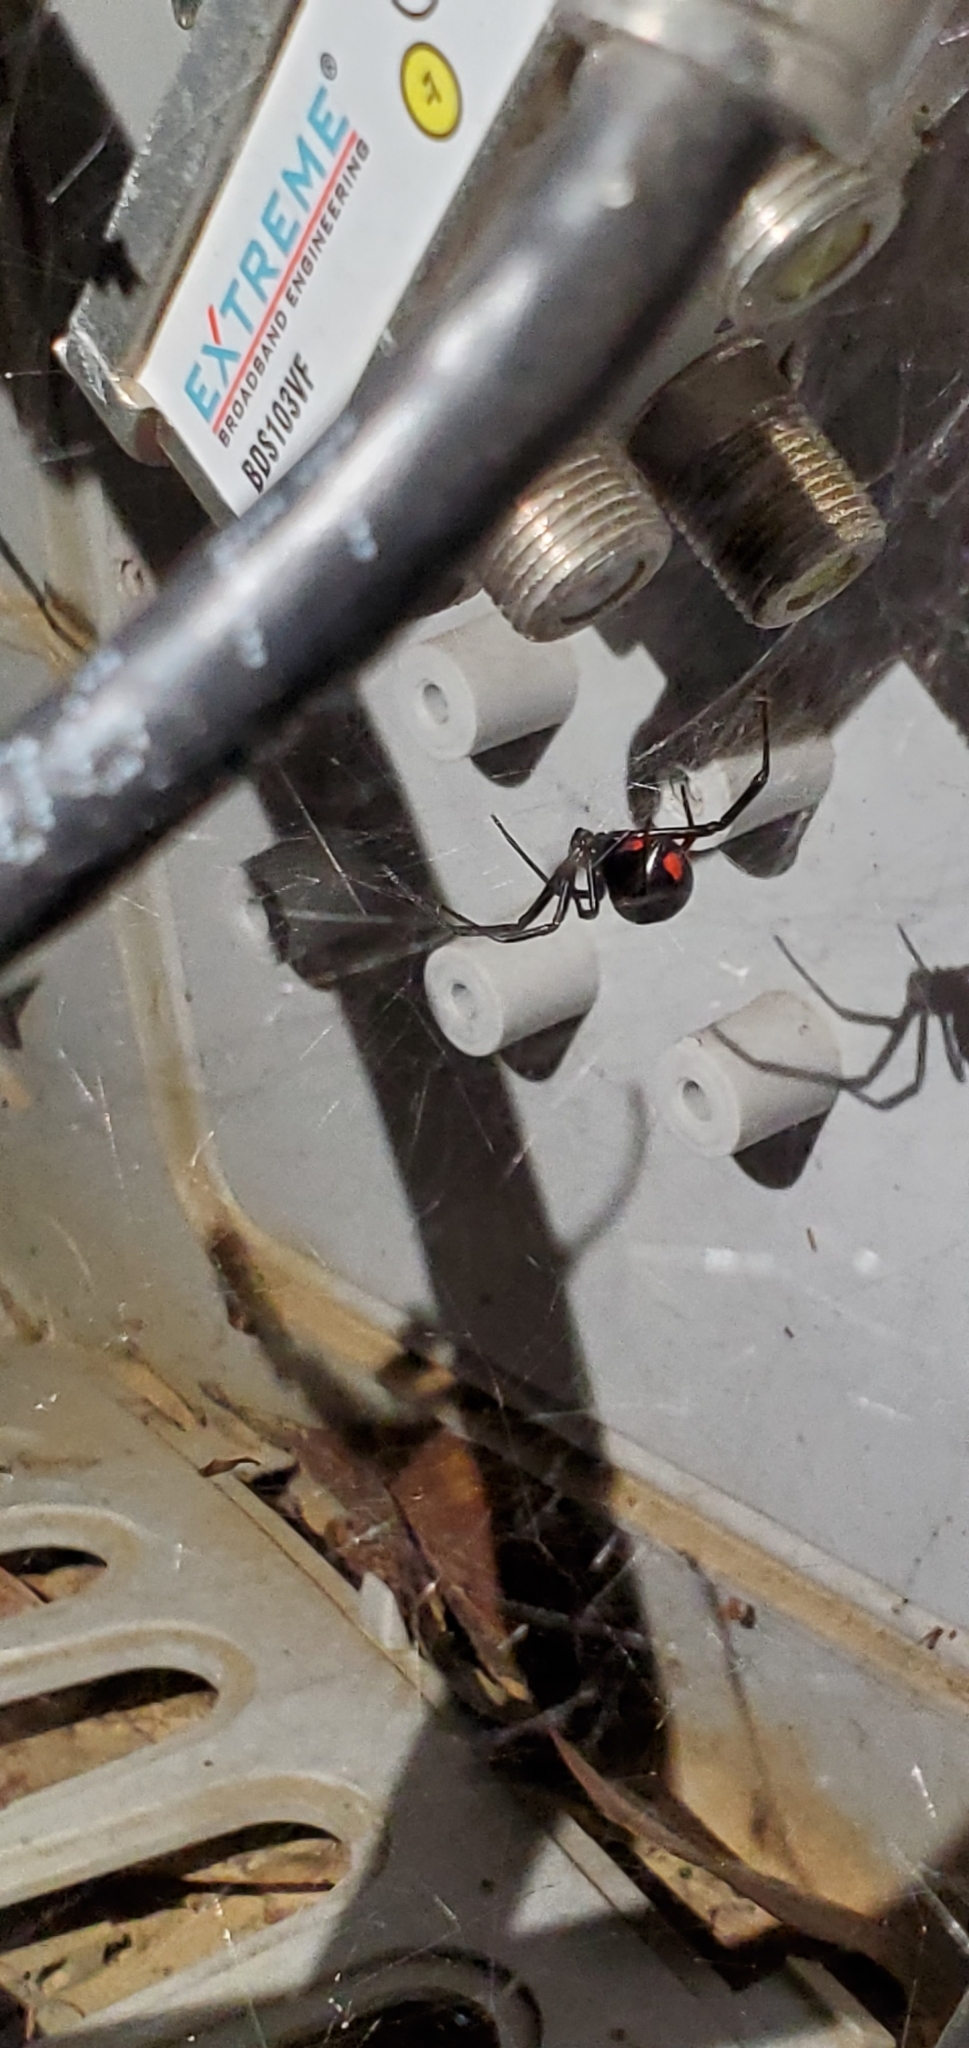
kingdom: Animalia
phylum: Arthropoda
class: Arachnida
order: Araneae
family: Theridiidae
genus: Latrodectus
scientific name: Latrodectus mactans
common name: Cobweb spiders
